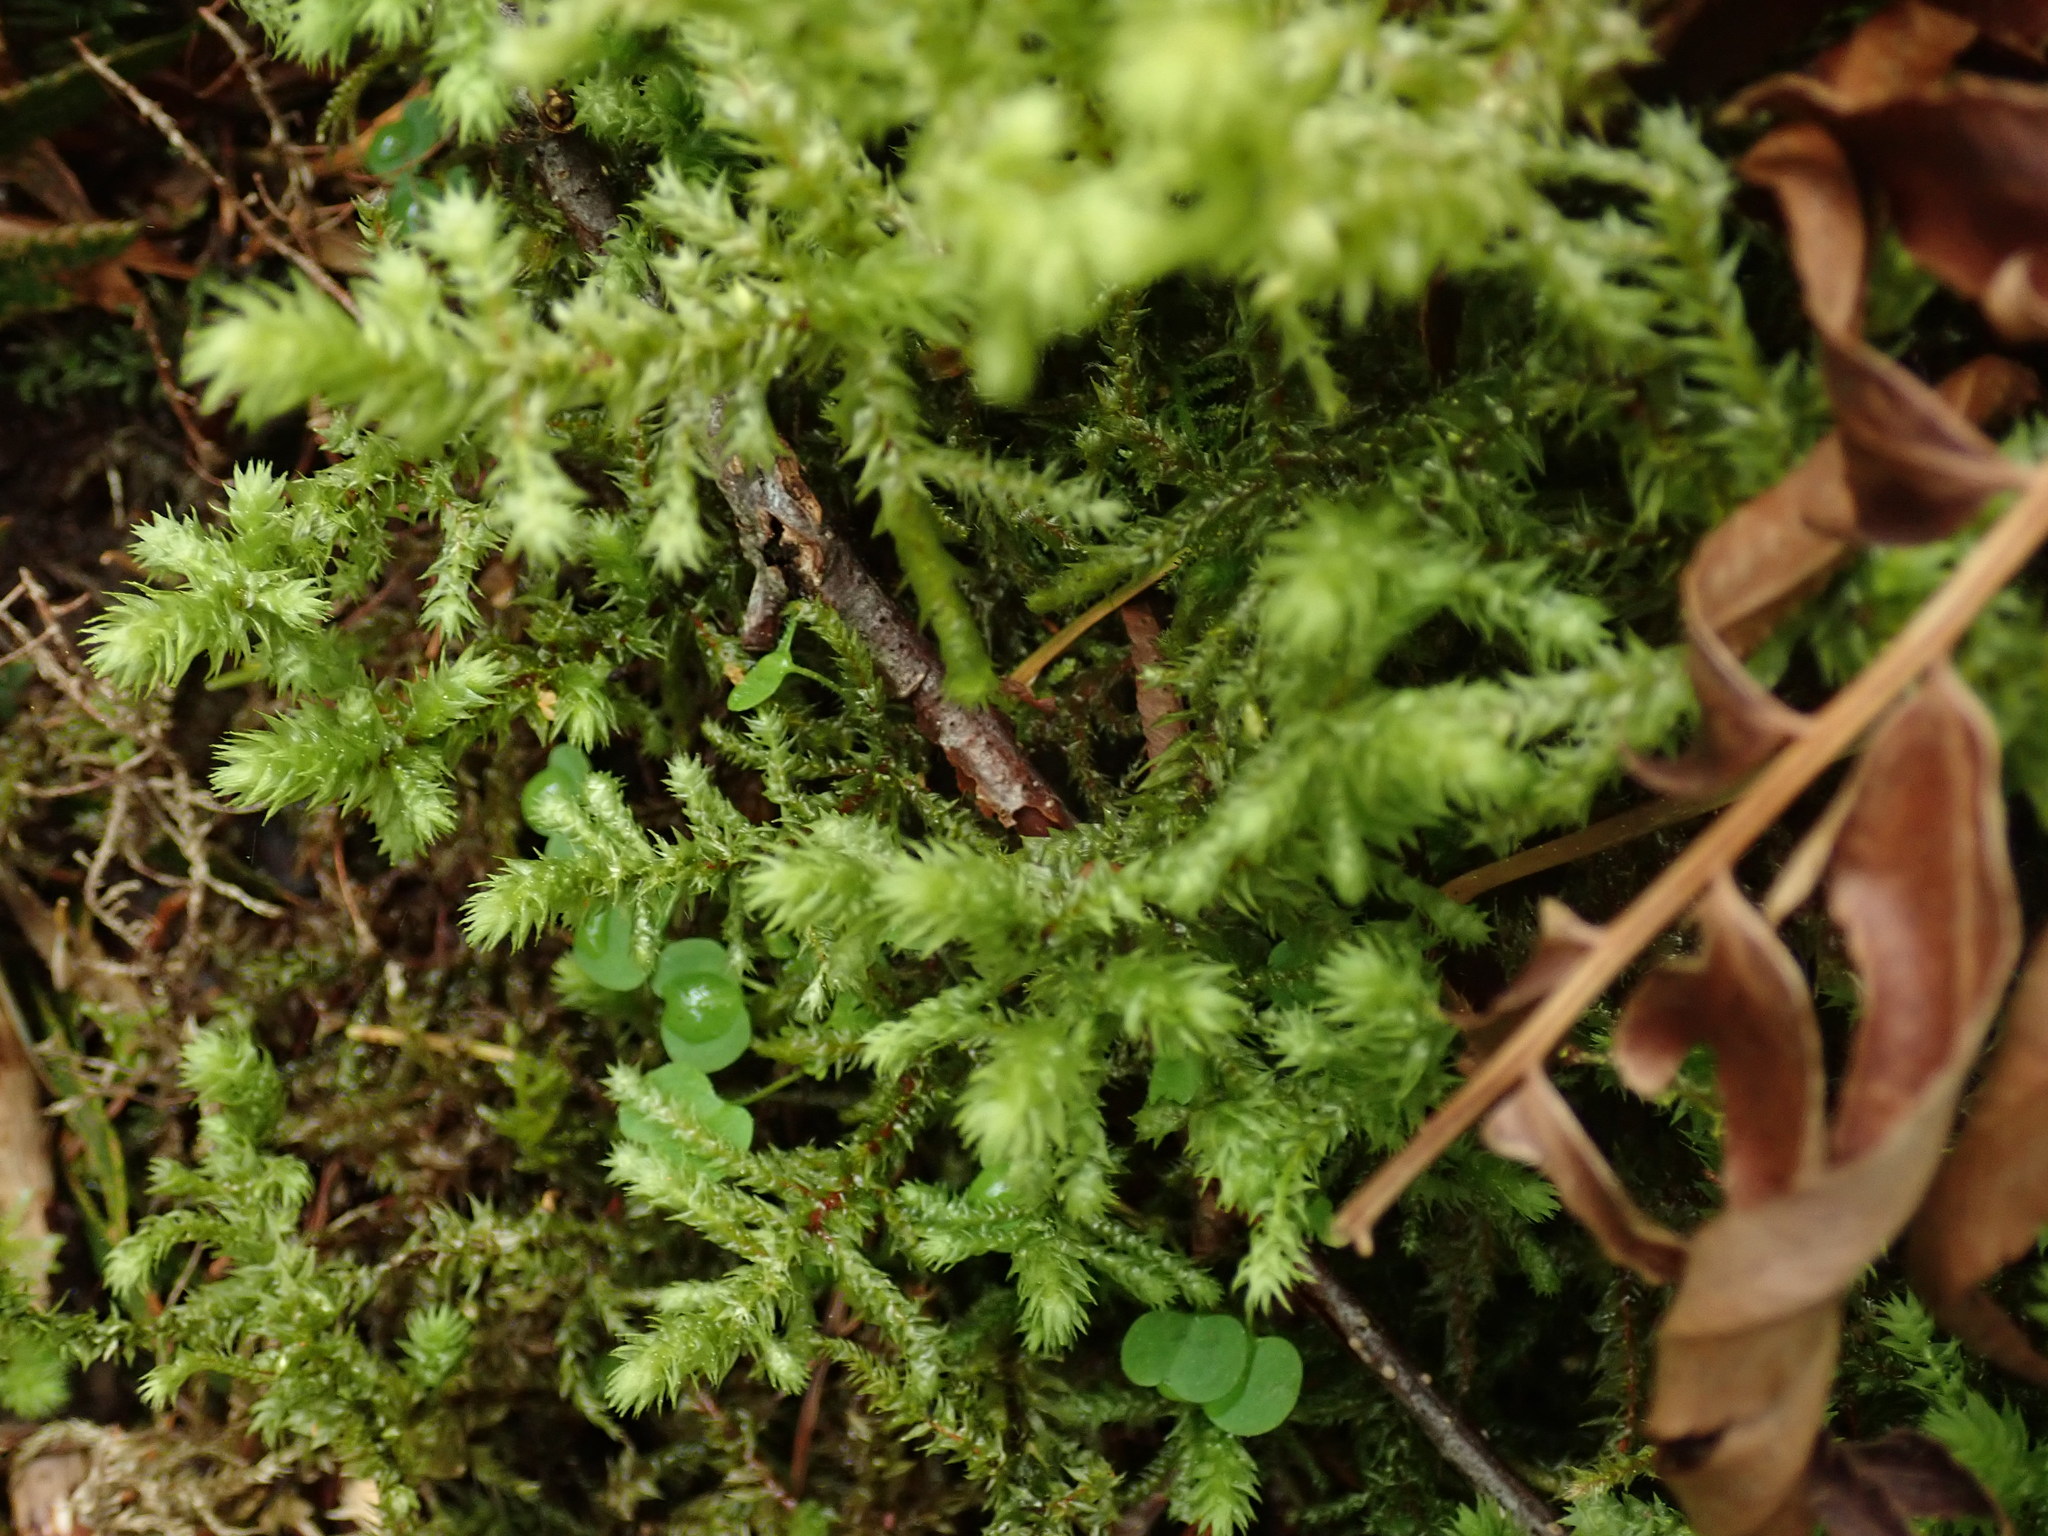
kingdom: Plantae
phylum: Bryophyta
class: Bryopsida
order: Hypnales
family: Hylocomiaceae
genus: Hylocomiadelphus
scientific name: Hylocomiadelphus triquetrus
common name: Rough goose neck moss
